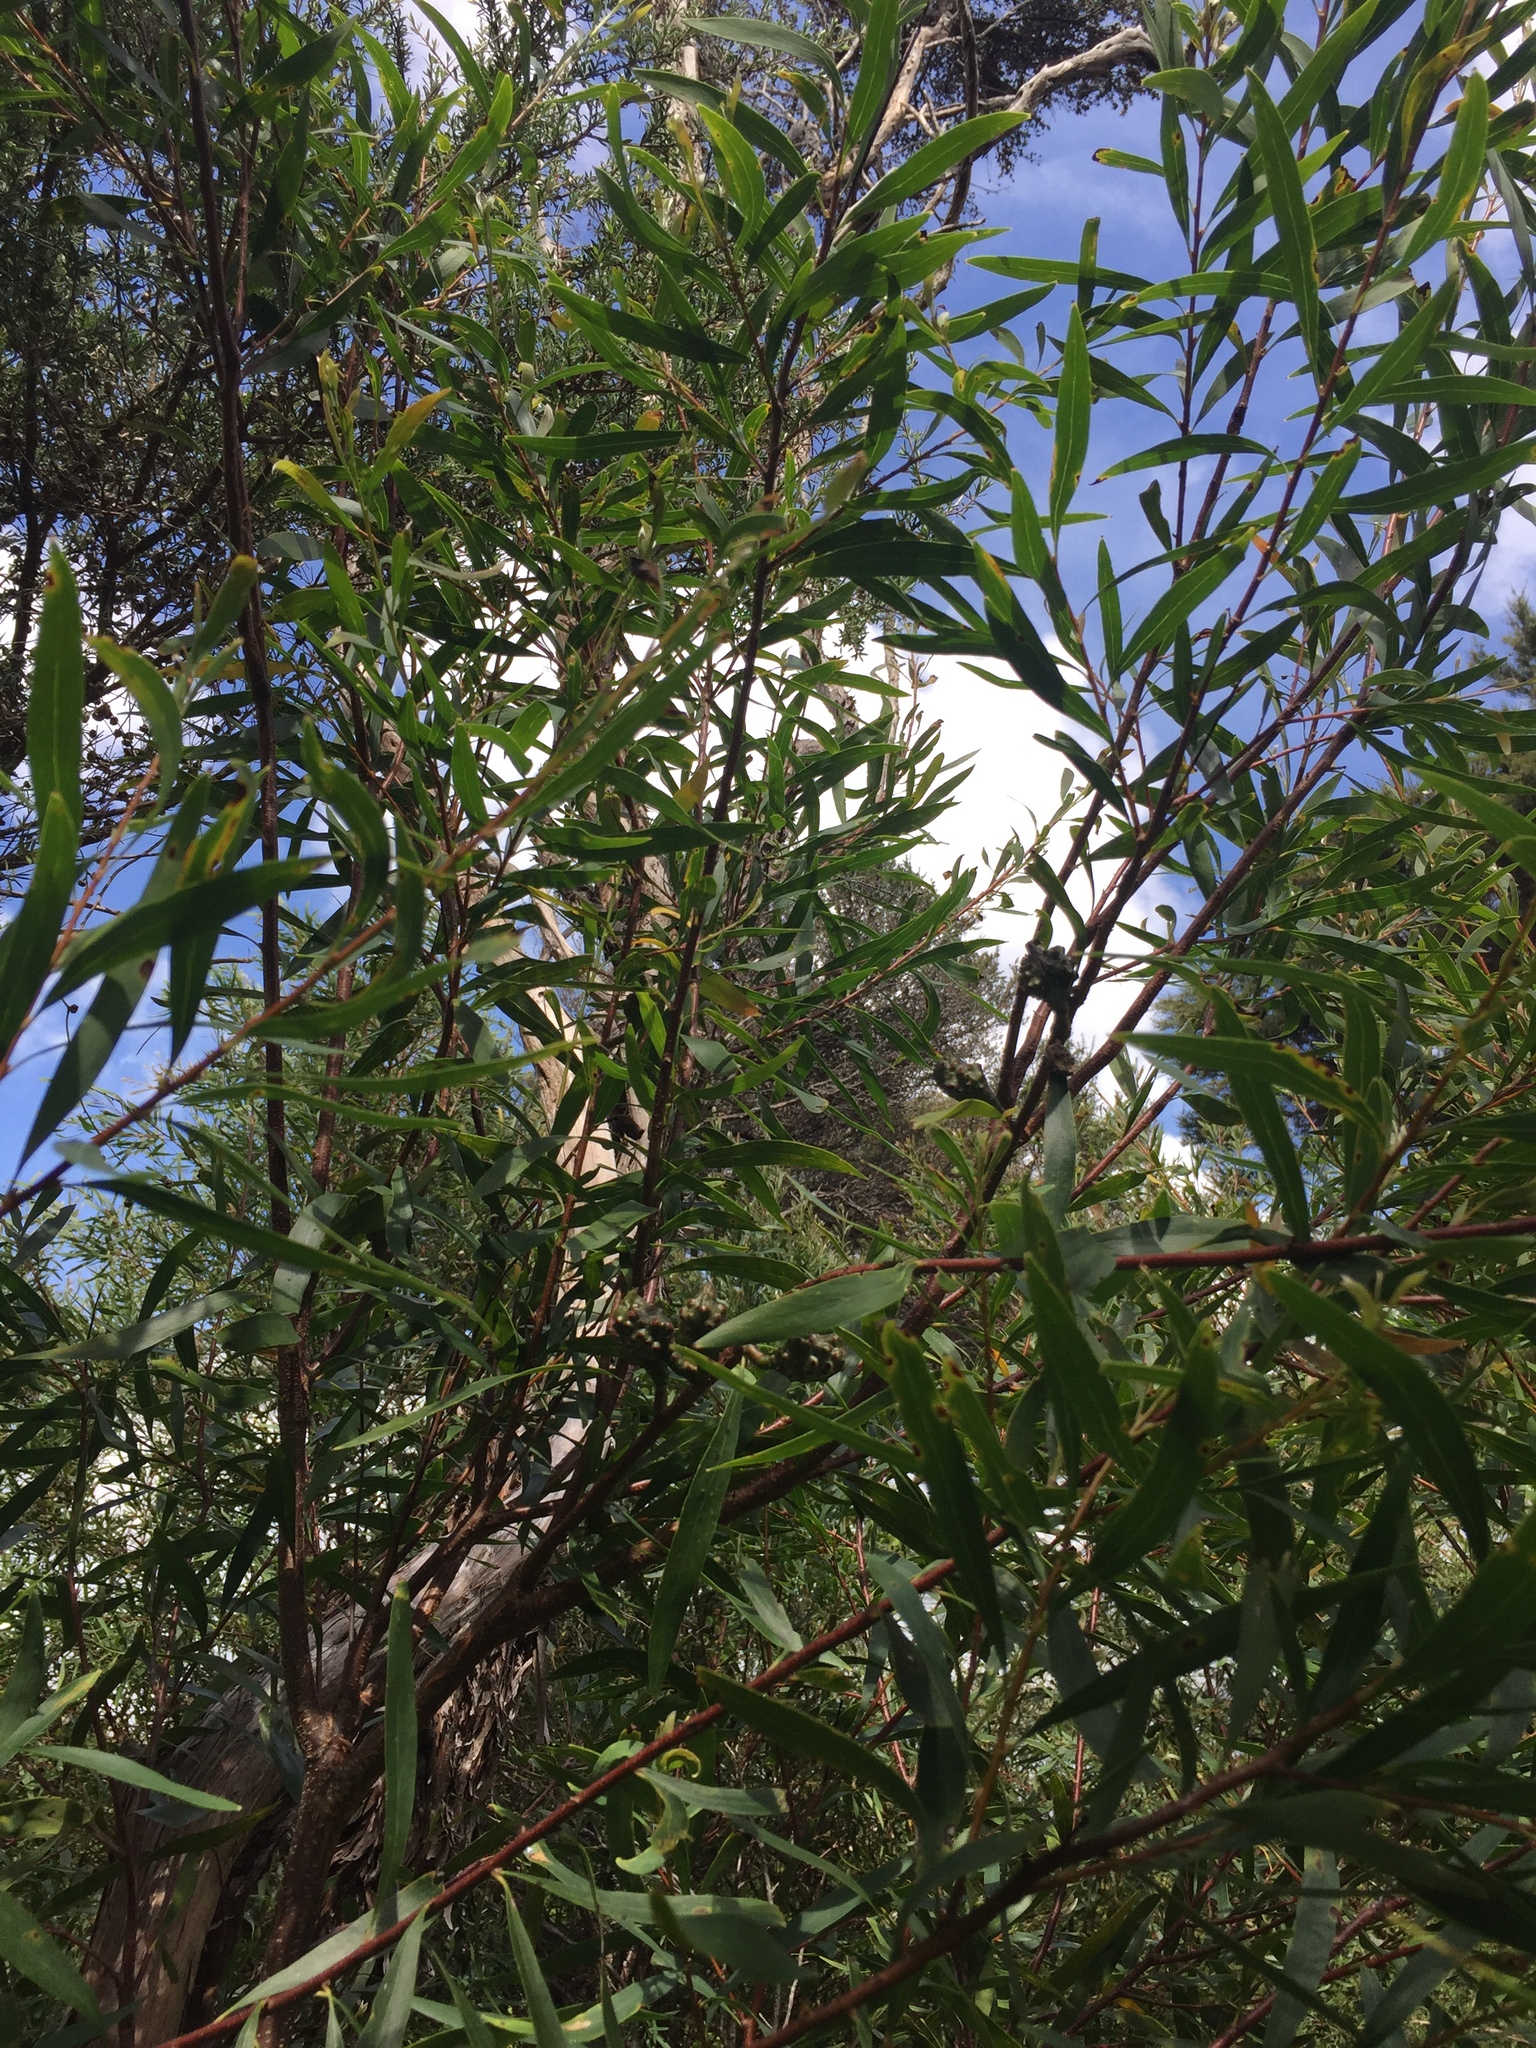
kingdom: Plantae
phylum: Tracheophyta
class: Magnoliopsida
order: Proteales
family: Proteaceae
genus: Hakea
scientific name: Hakea salicifolia
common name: Willow hakea
